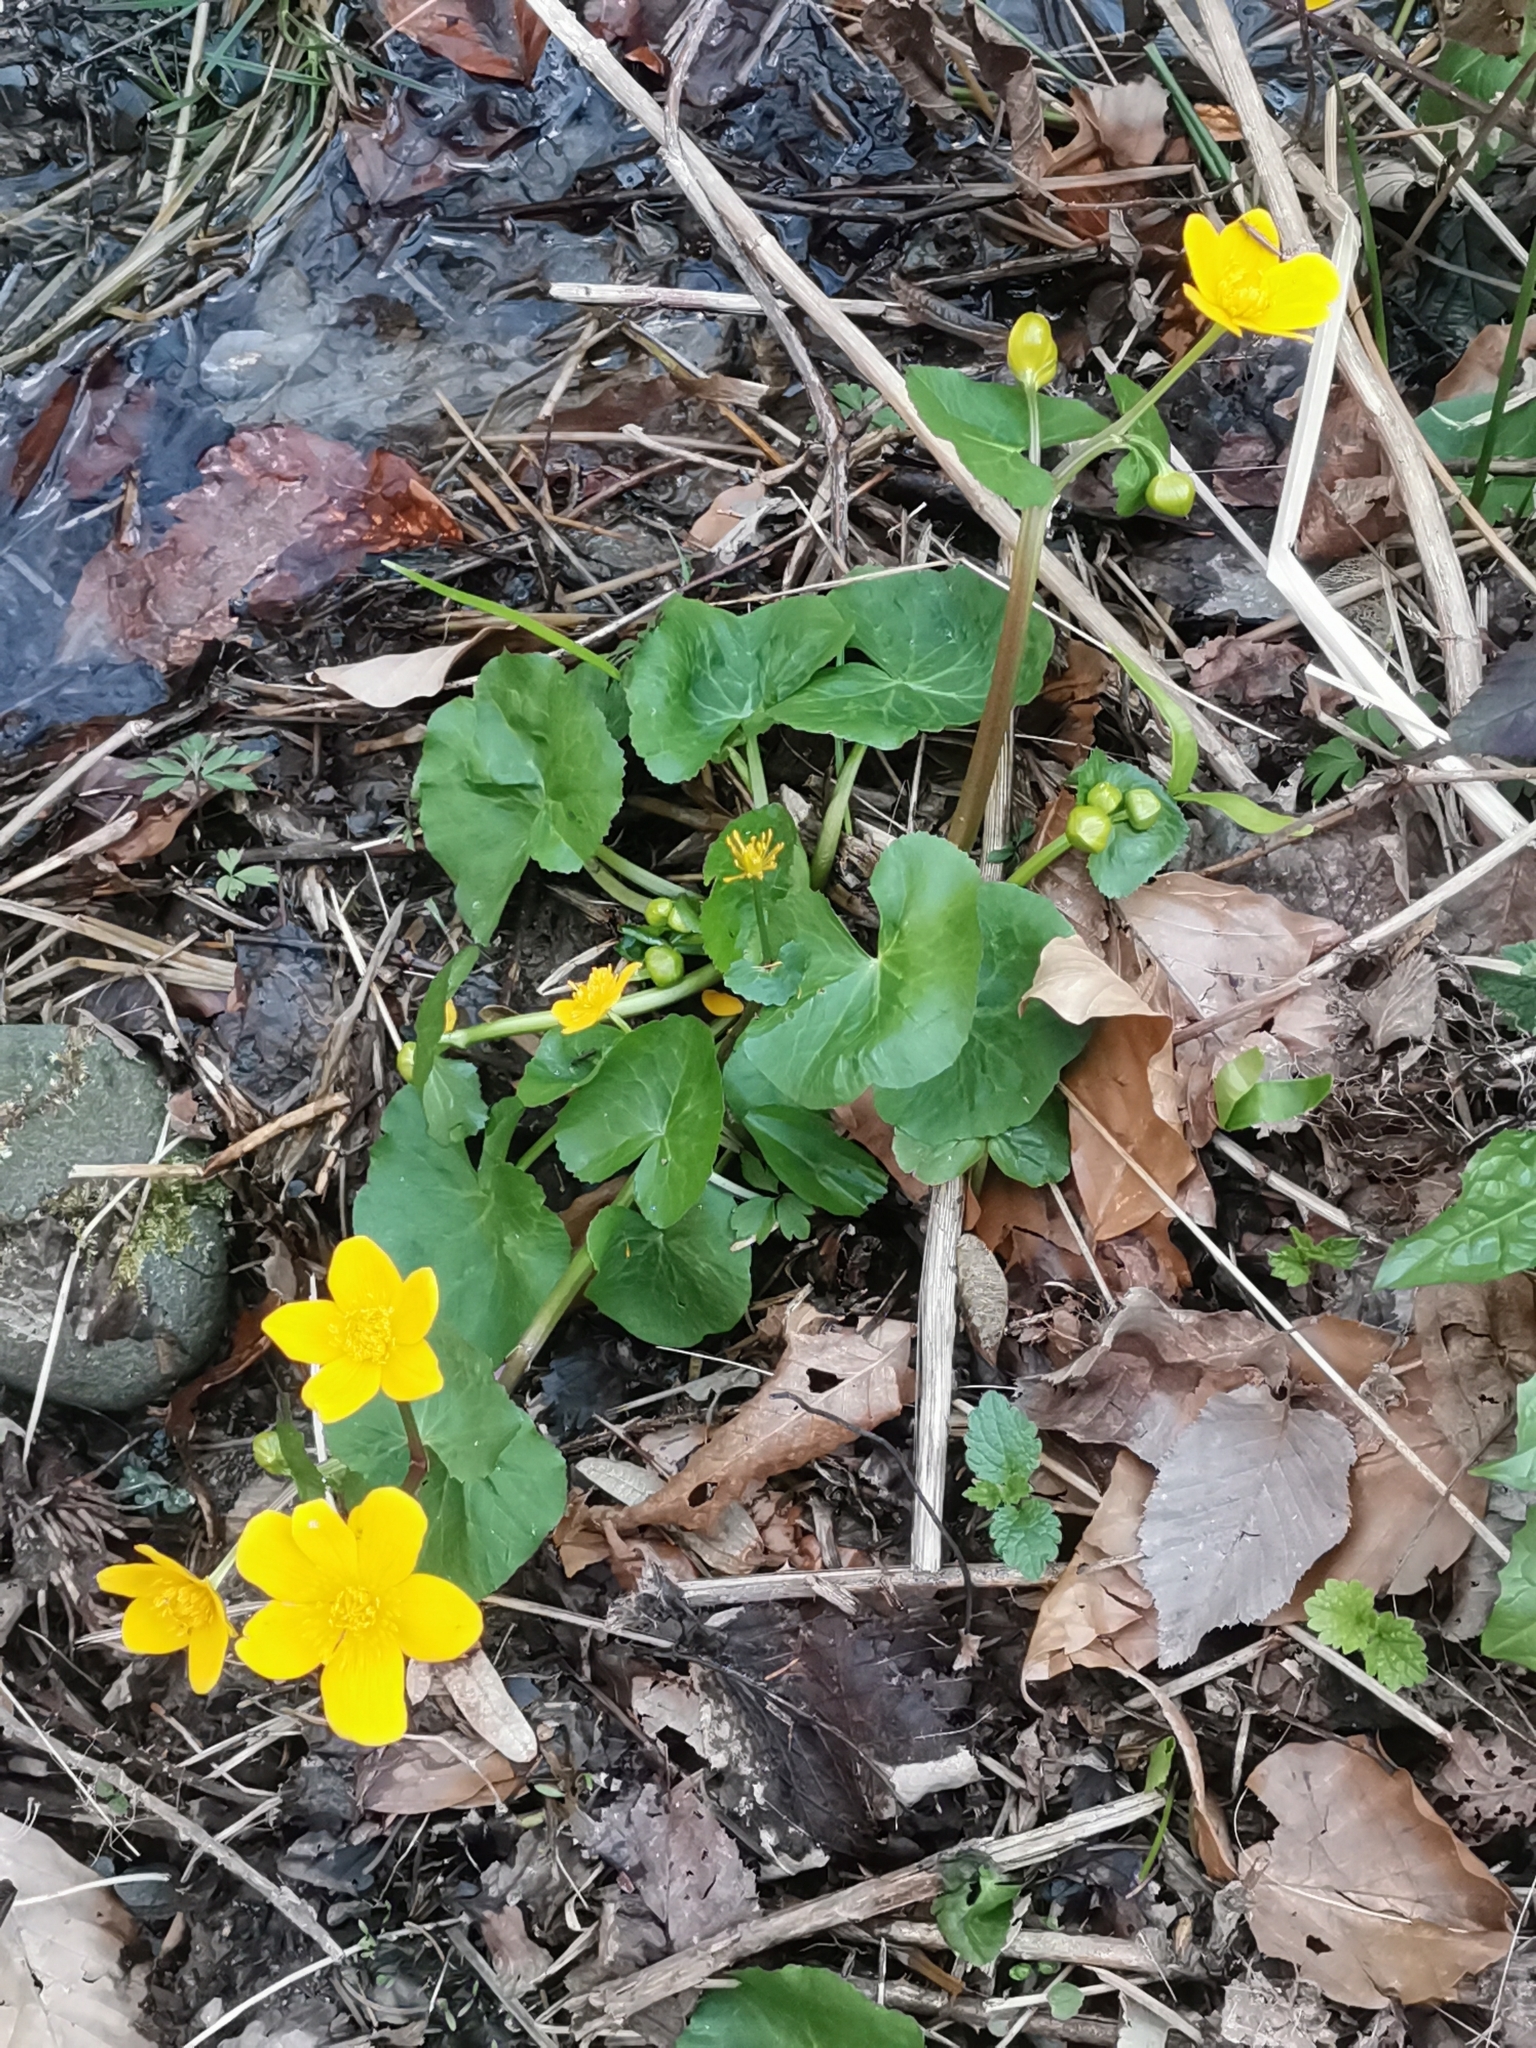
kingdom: Plantae
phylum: Tracheophyta
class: Magnoliopsida
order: Ranunculales
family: Ranunculaceae
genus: Caltha
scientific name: Caltha palustris
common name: Marsh marigold
